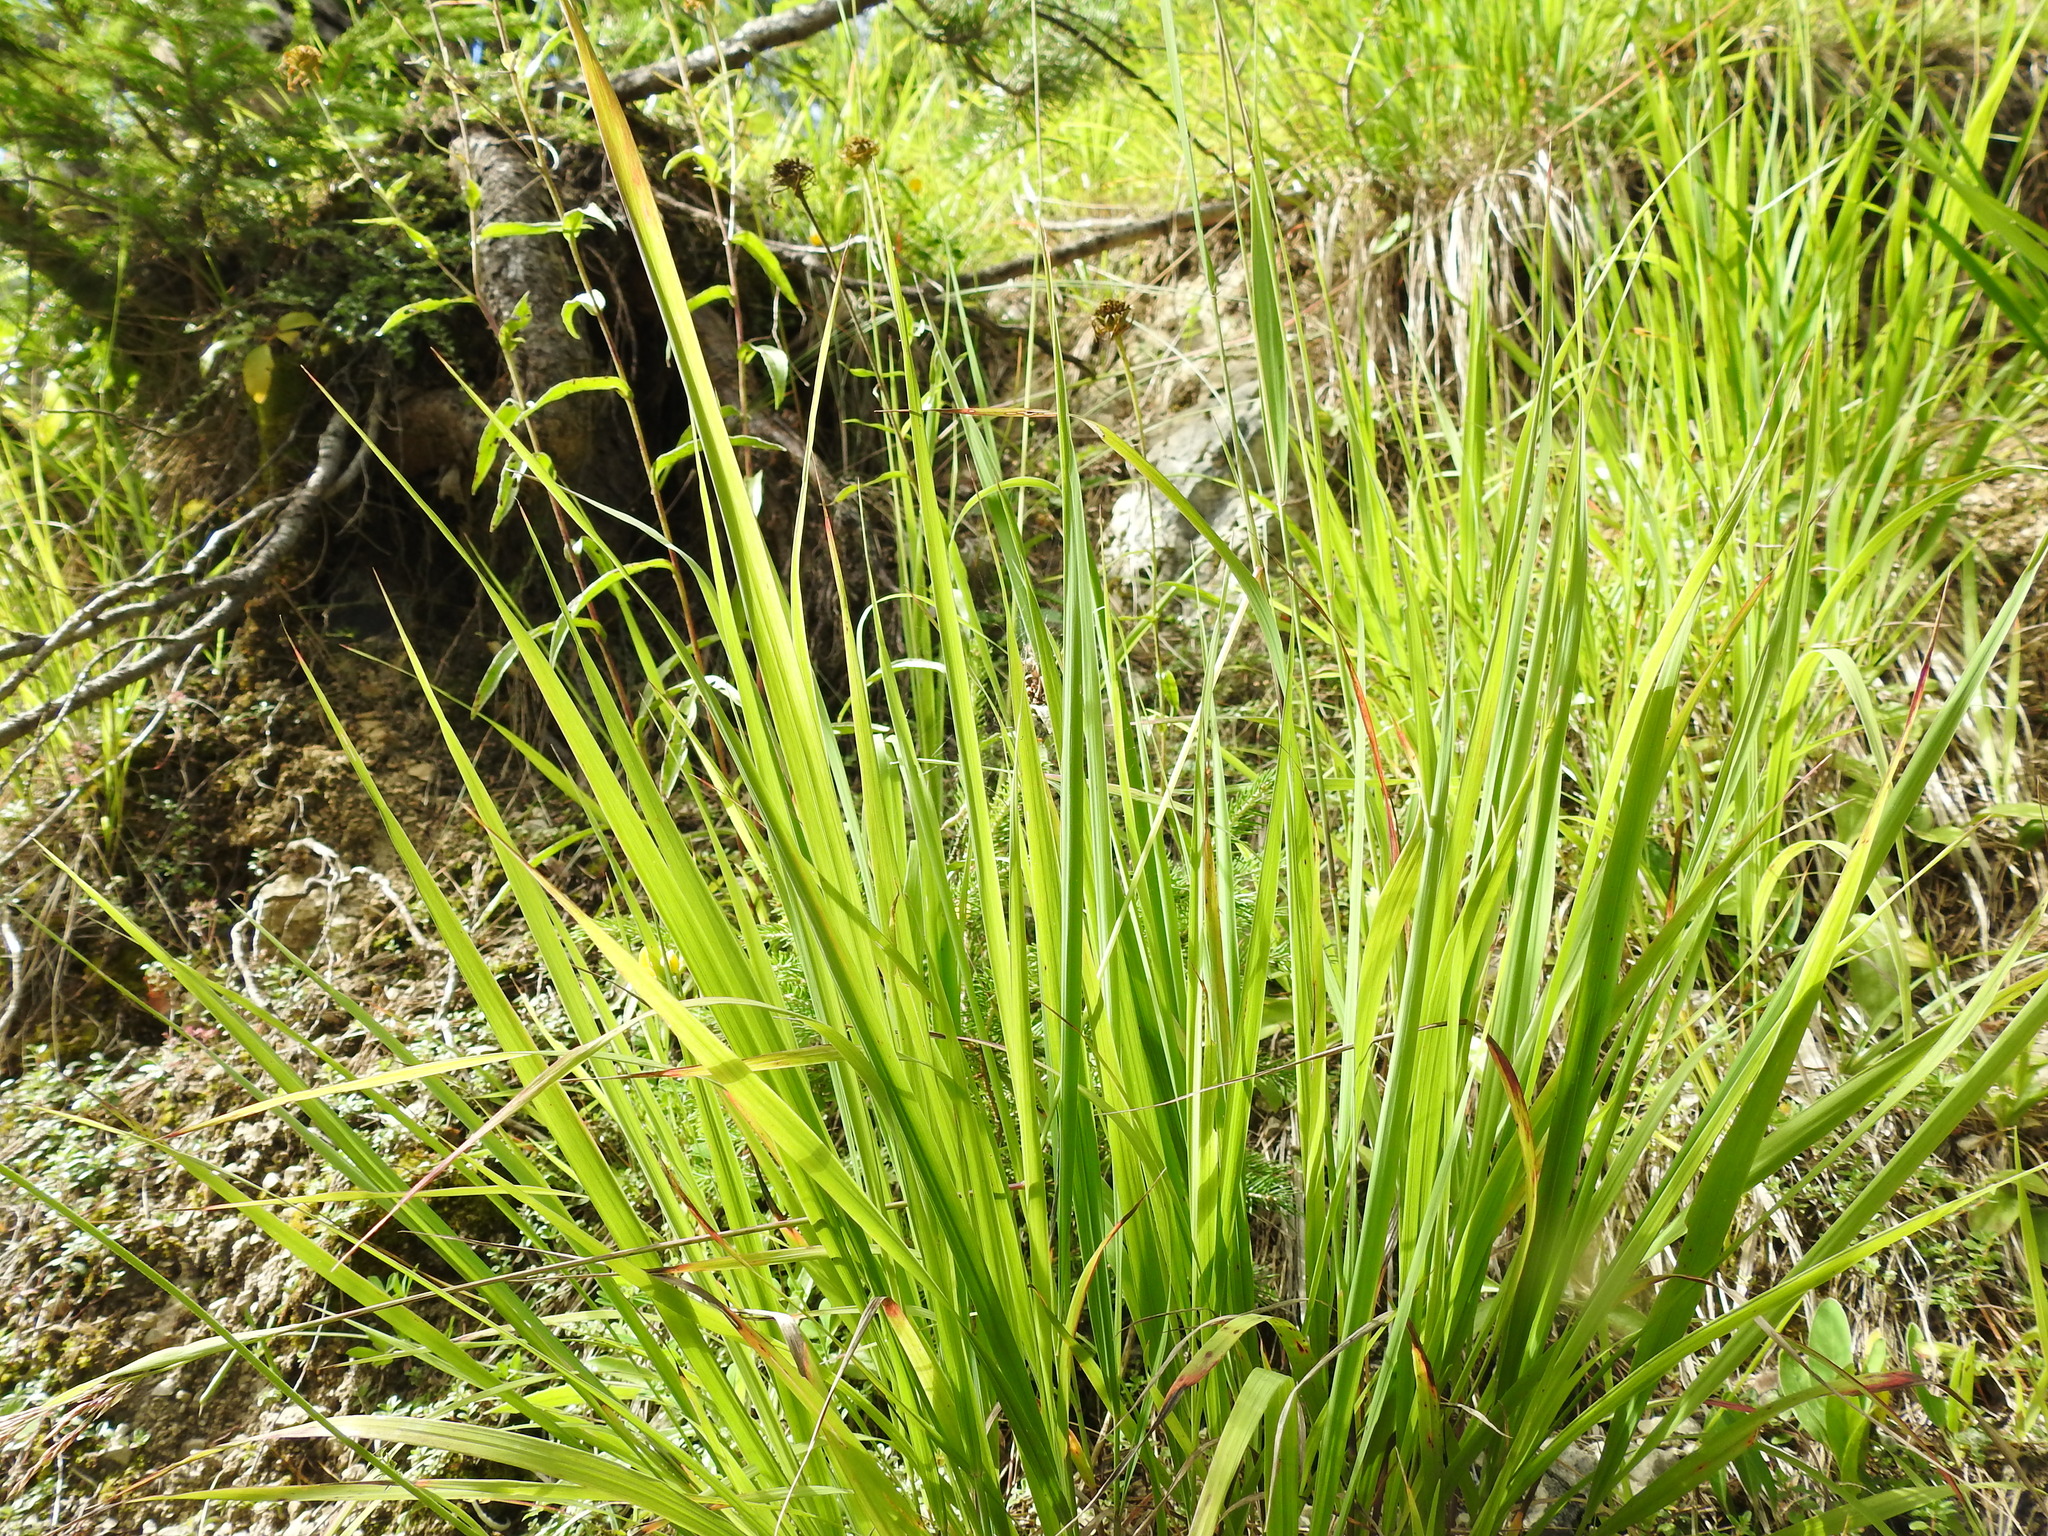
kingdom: Plantae
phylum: Tracheophyta
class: Liliopsida
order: Poales
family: Poaceae
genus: Molinia
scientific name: Molinia caerulea
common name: Purple moor-grass
